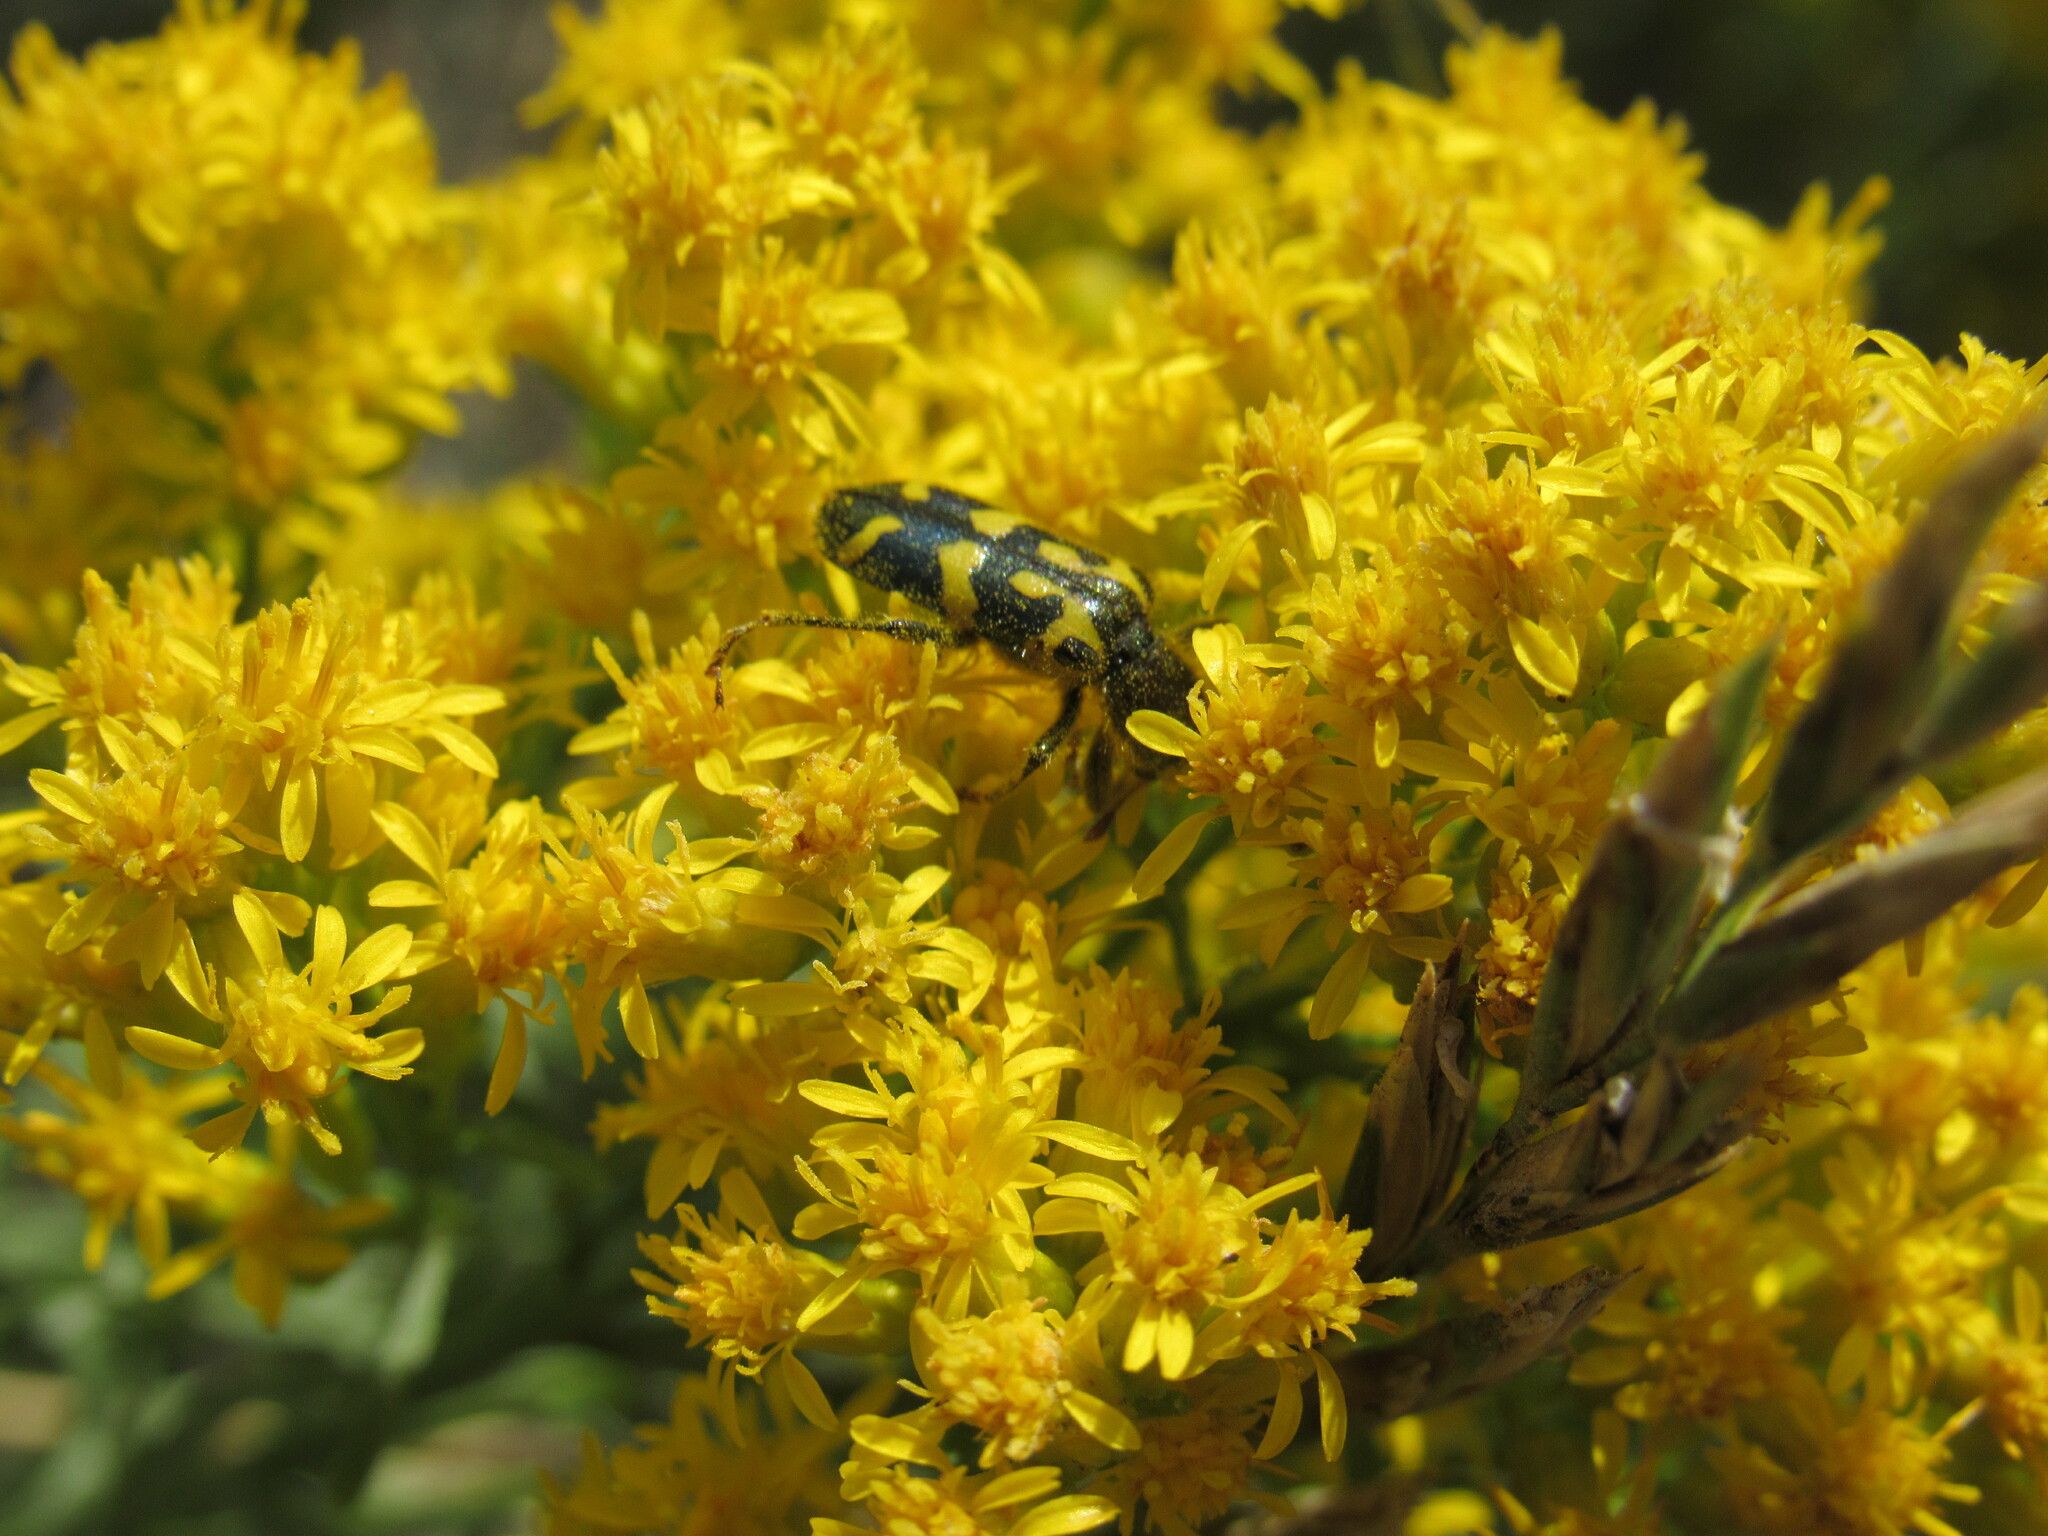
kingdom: Animalia
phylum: Arthropoda
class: Insecta
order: Coleoptera
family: Cleridae
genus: Trichodes
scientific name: Trichodes ornatus
